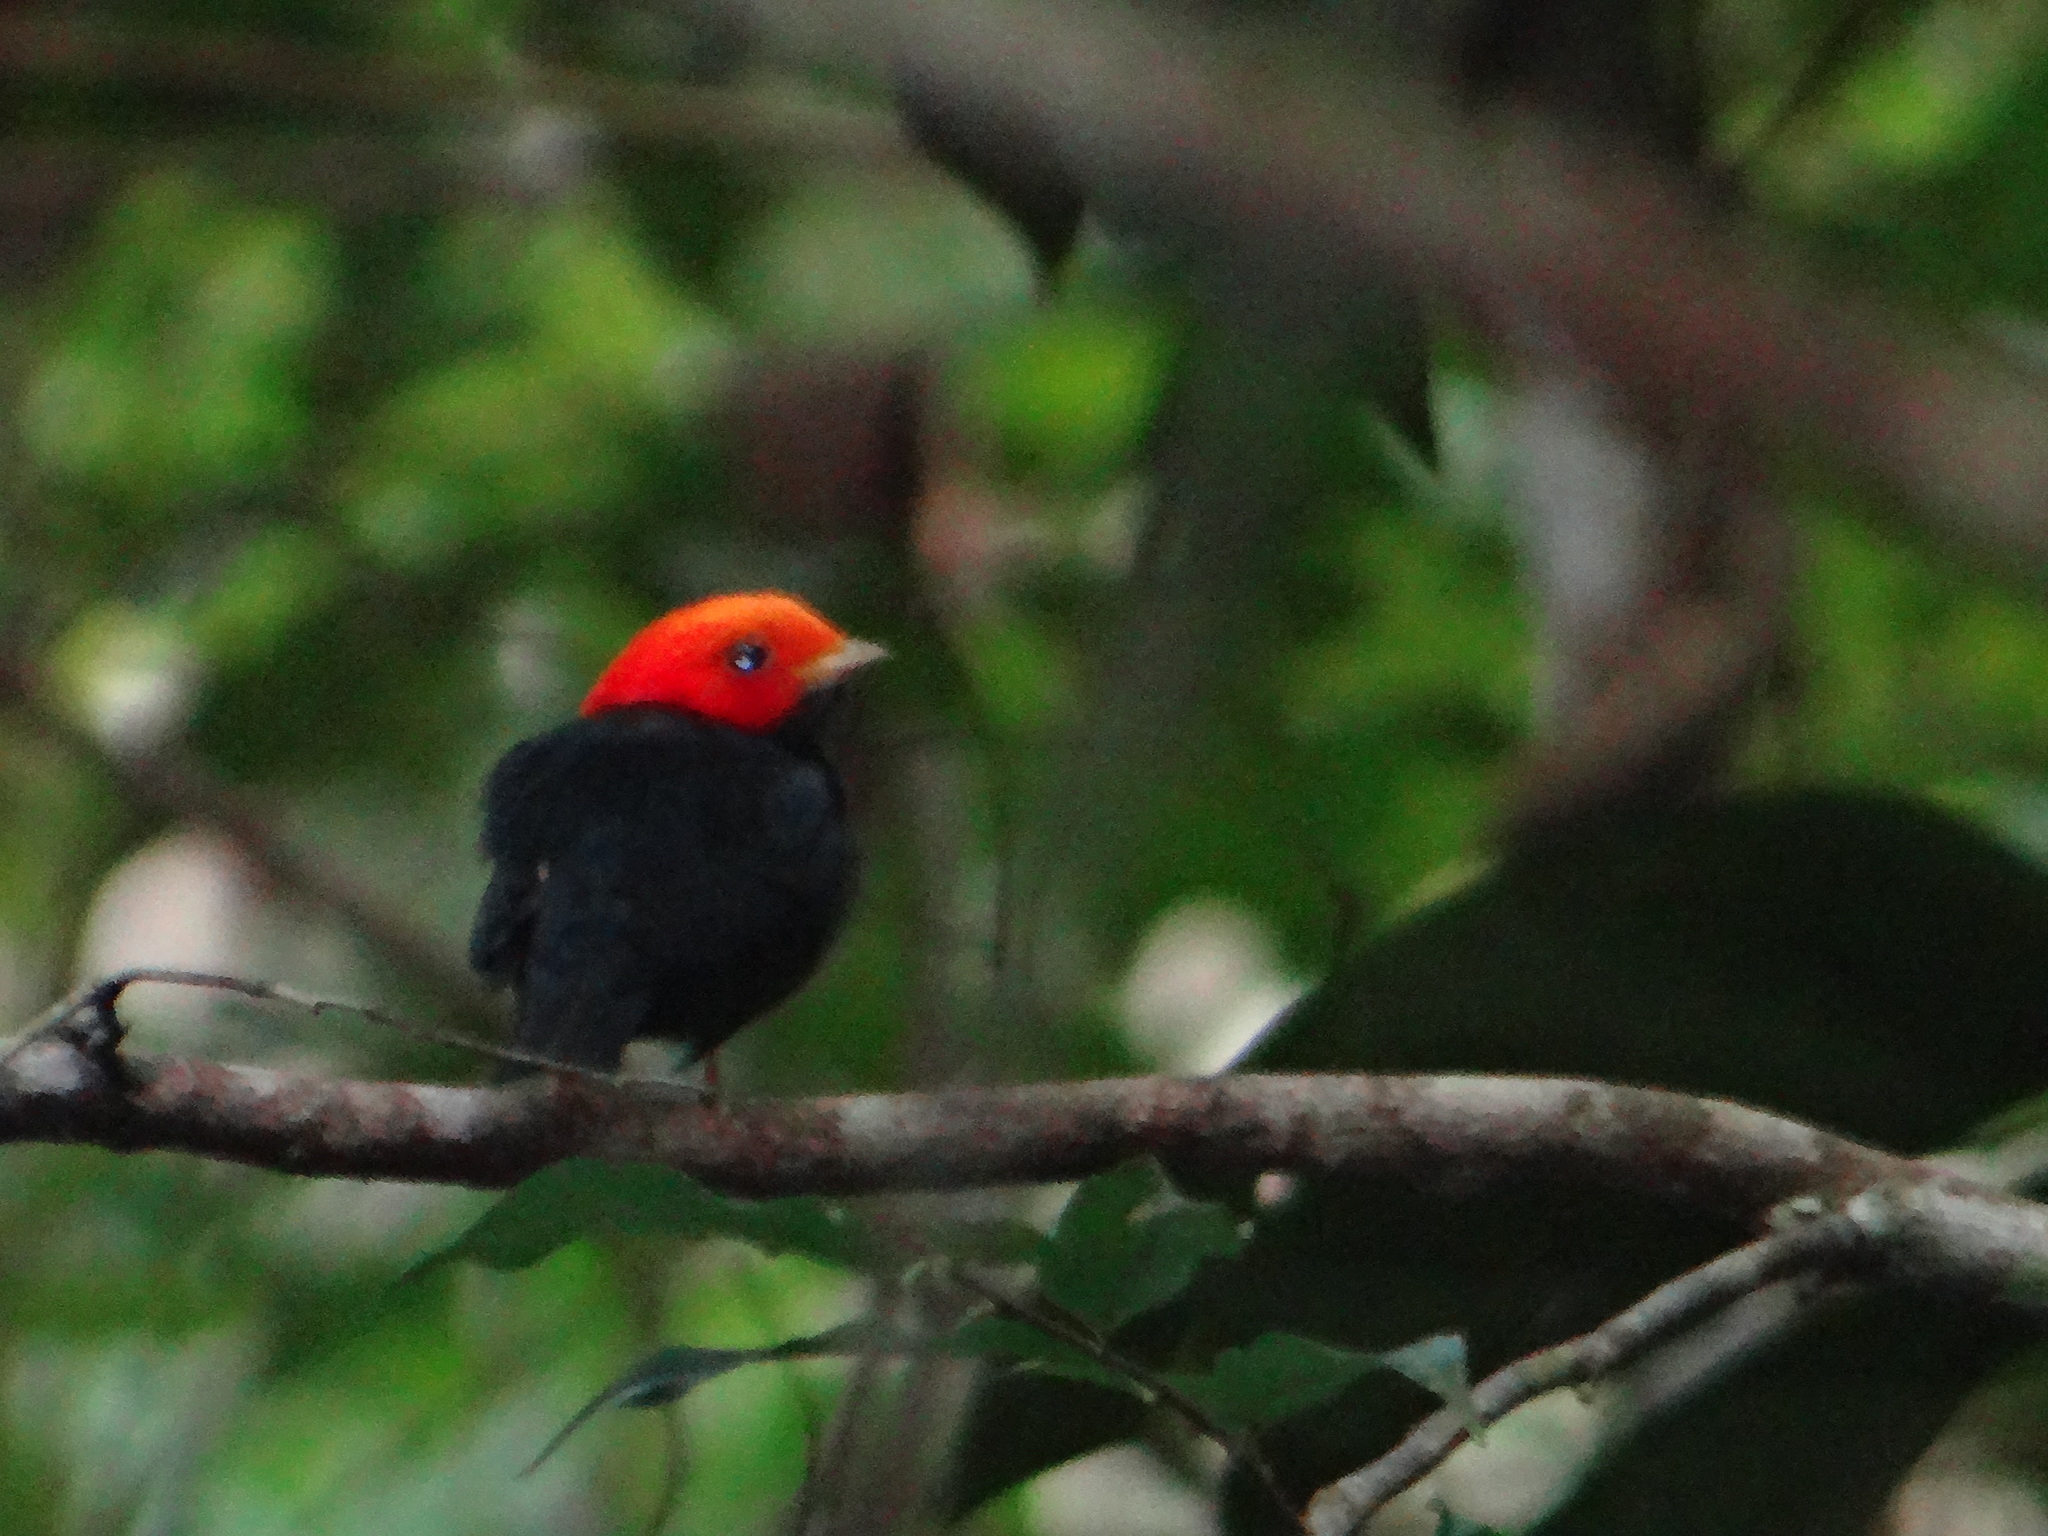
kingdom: Animalia
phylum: Chordata
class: Aves
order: Passeriformes
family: Pipridae
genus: Pipra
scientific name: Pipra rubrocapilla
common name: Red-headed manakin
